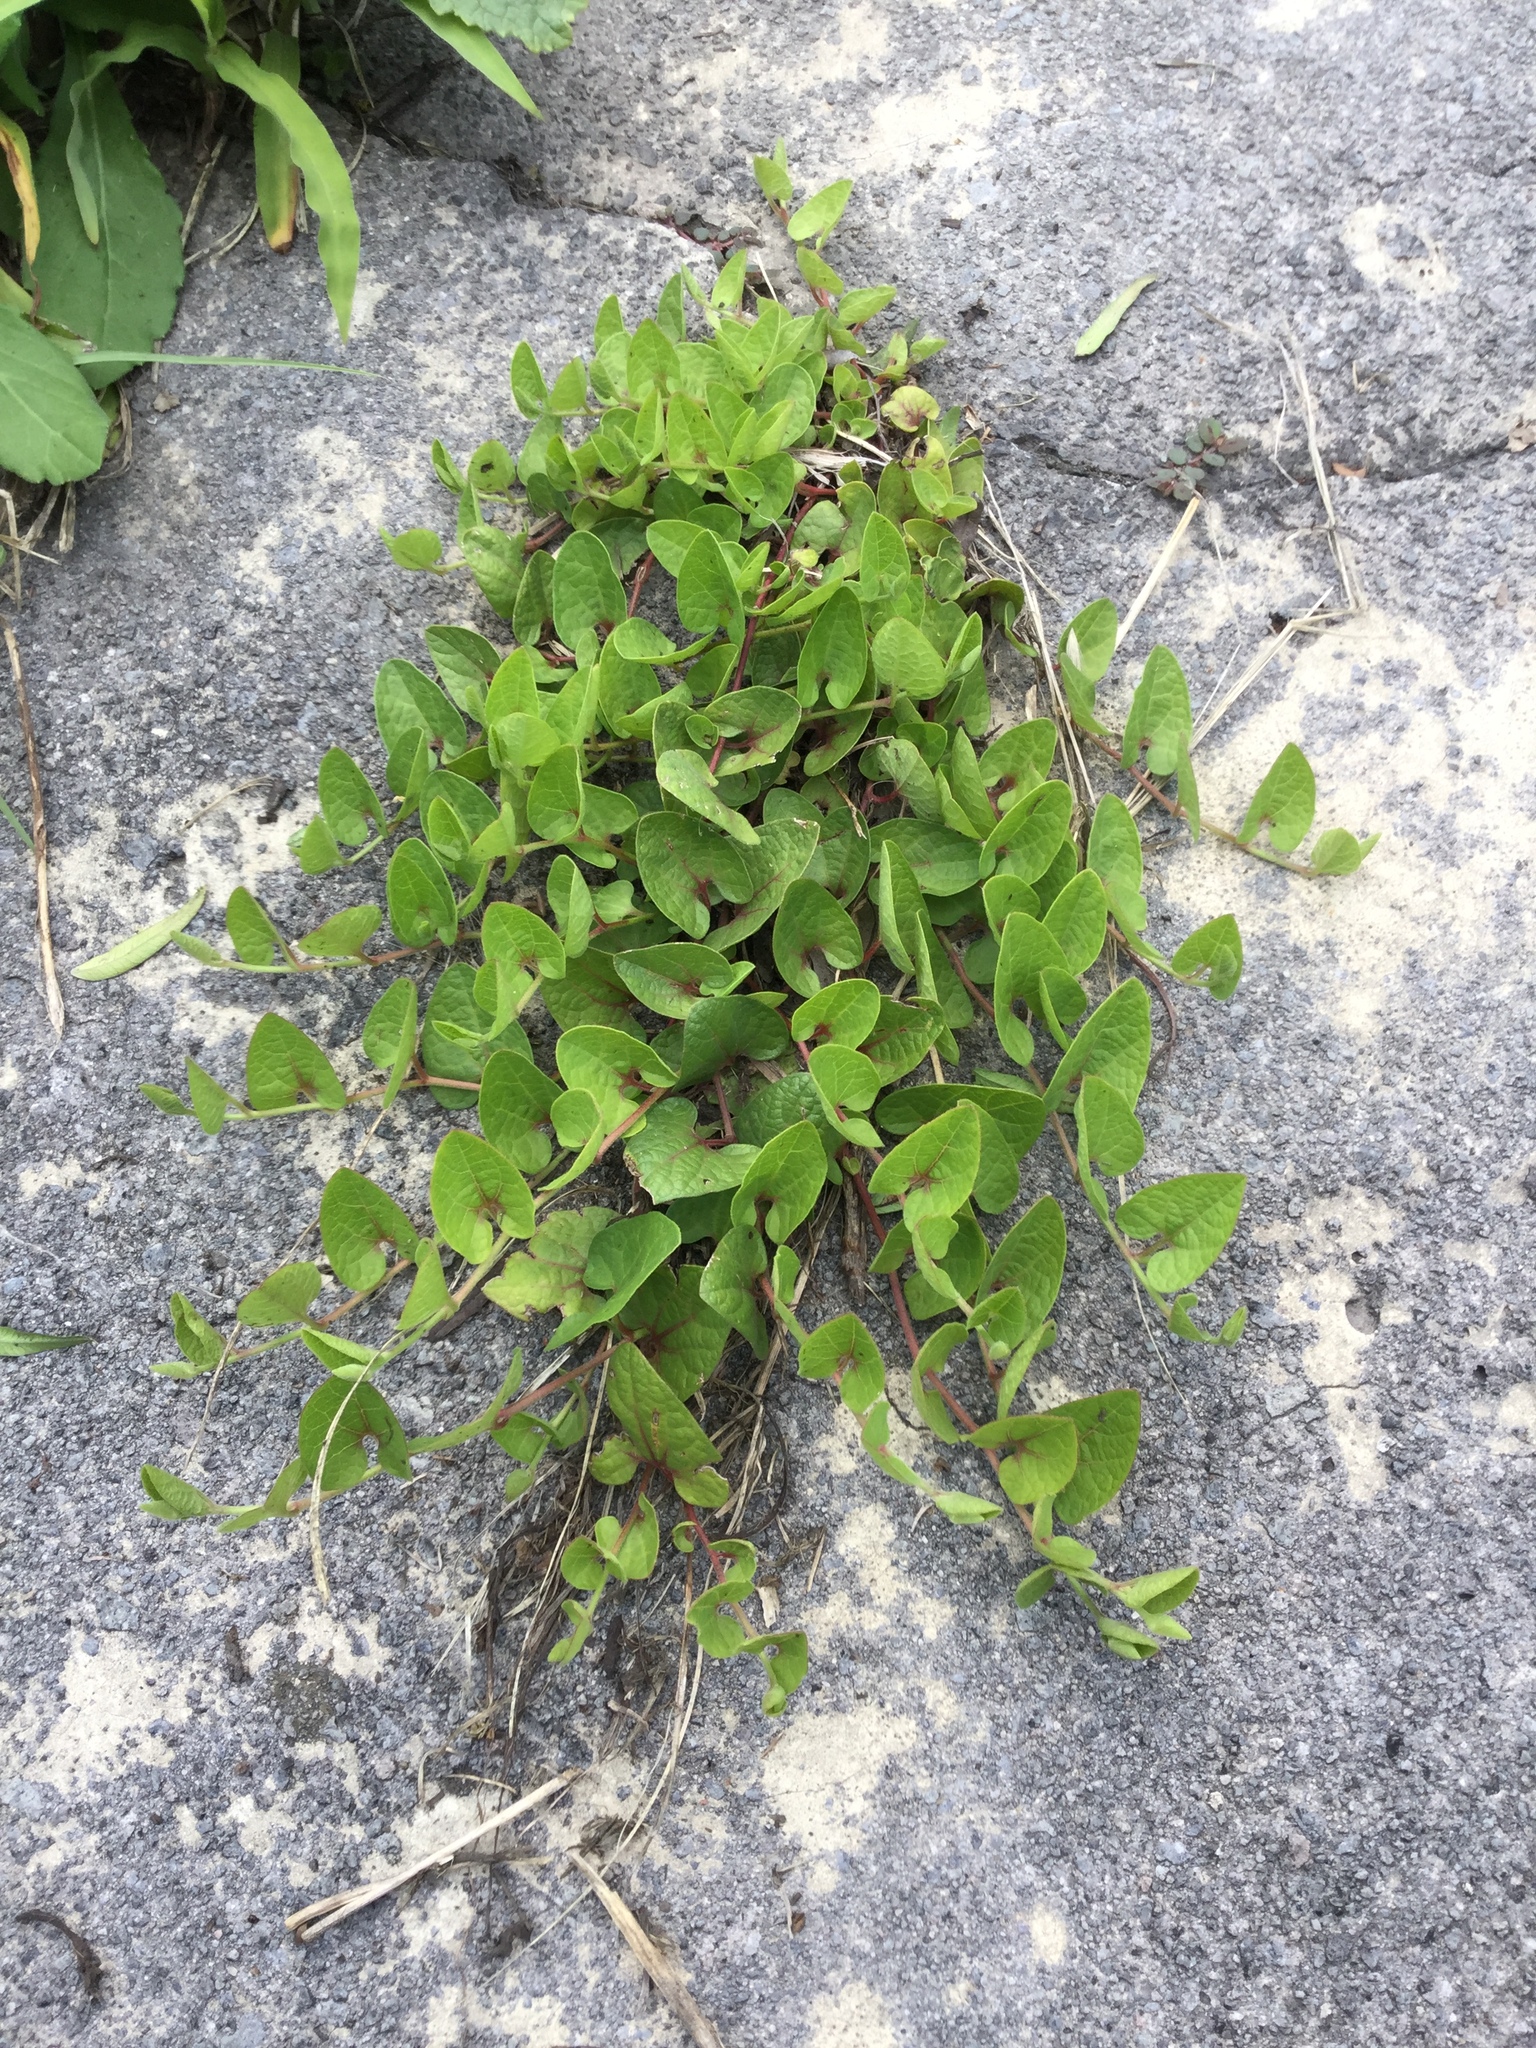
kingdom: Plantae
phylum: Tracheophyta
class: Magnoliopsida
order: Piperales
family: Aristolochiaceae
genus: Aristolochia
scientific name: Aristolochia brevipes
